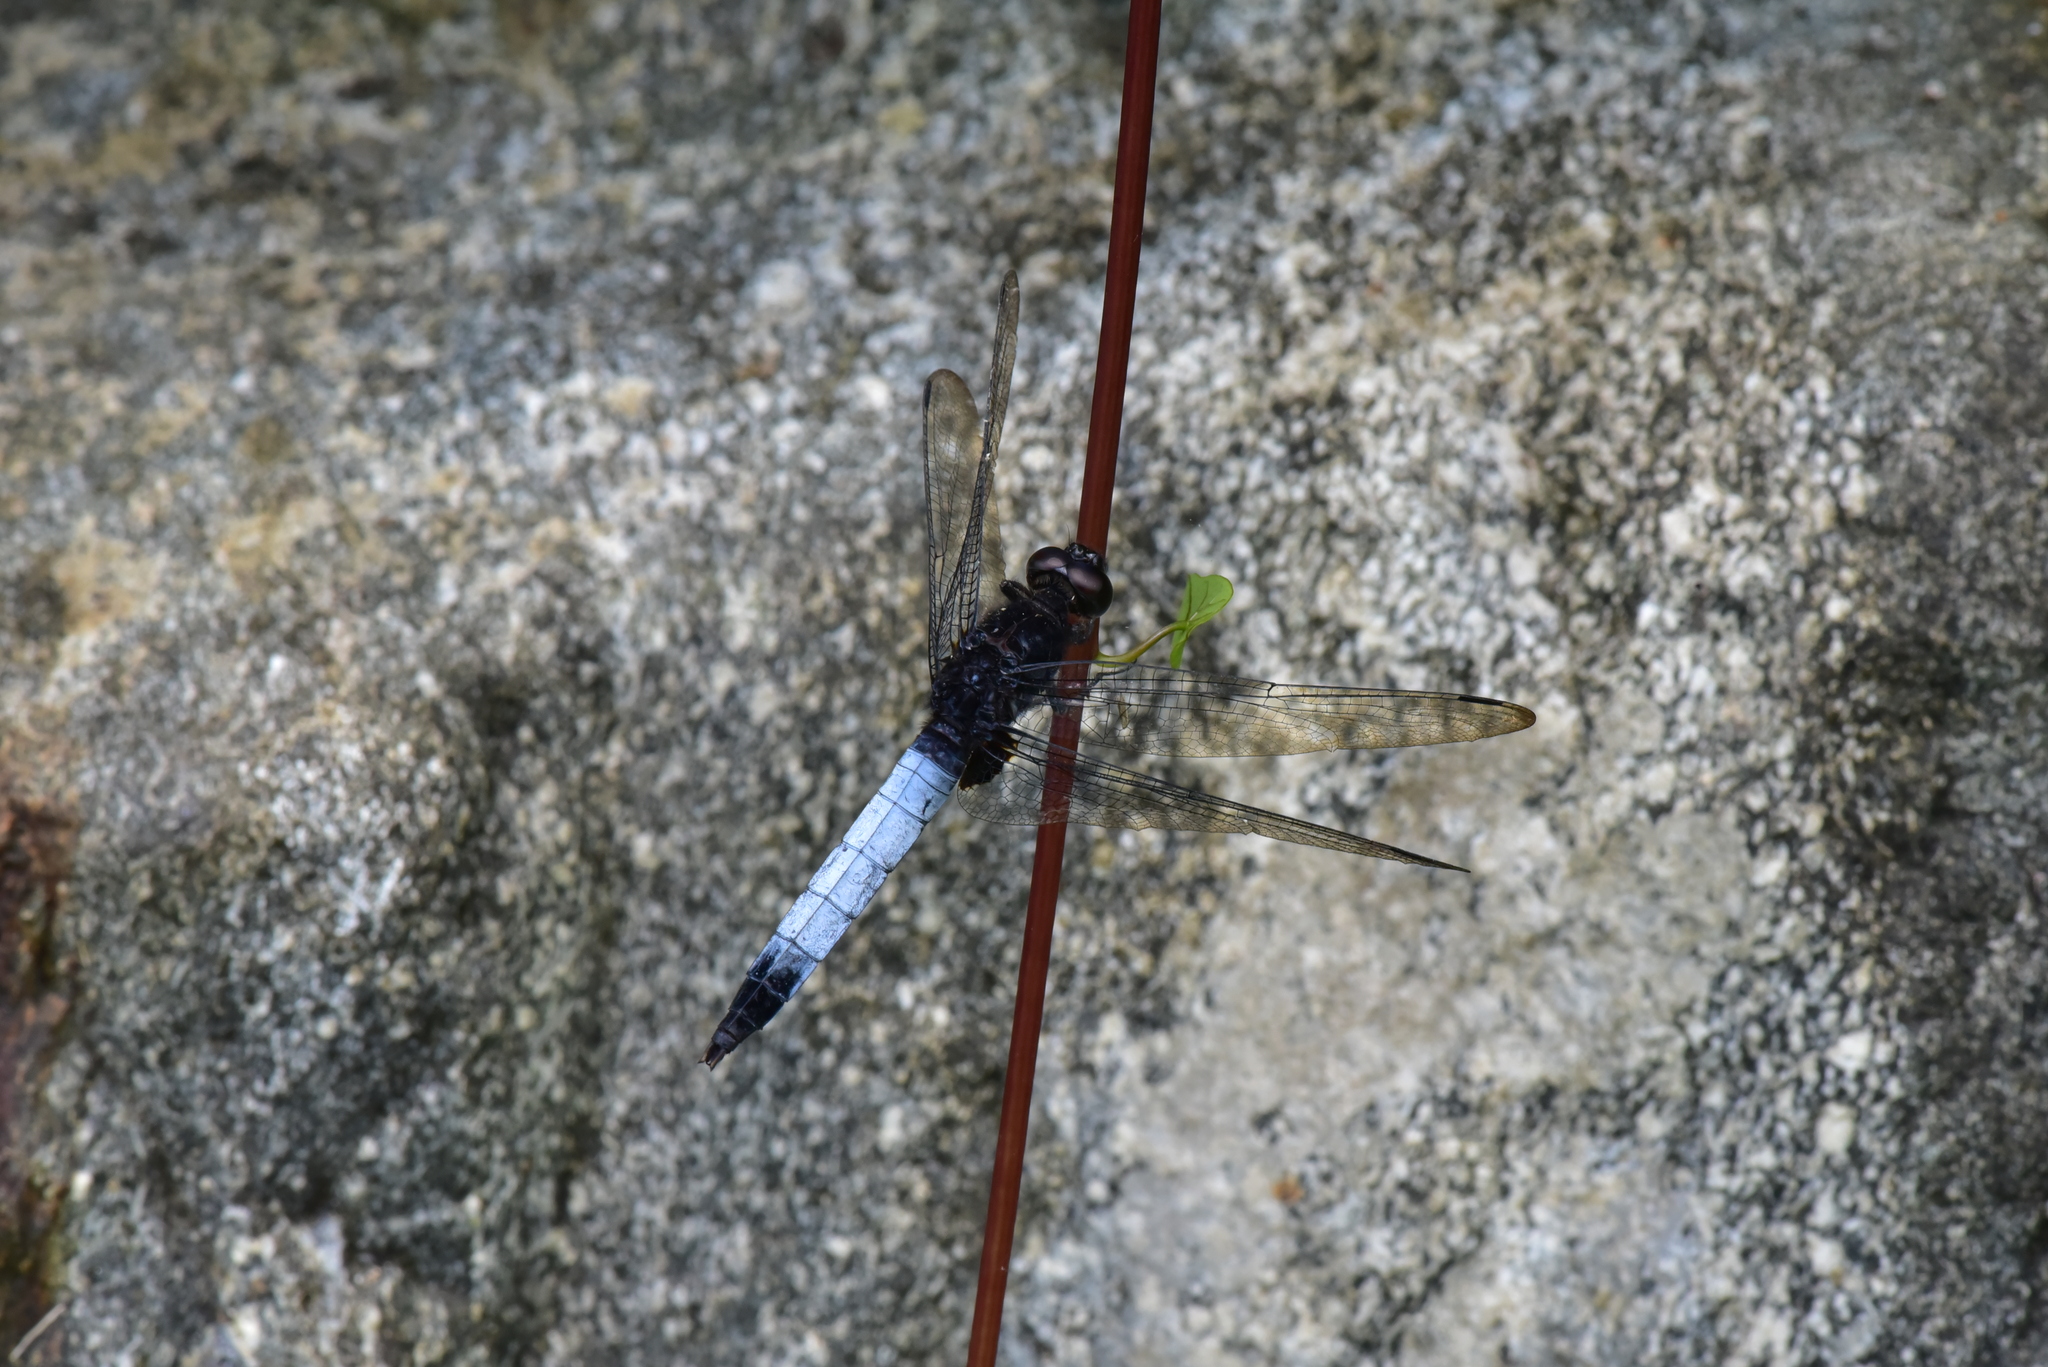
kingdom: Animalia
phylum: Arthropoda
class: Insecta
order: Odonata
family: Libellulidae
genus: Orthetrum
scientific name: Orthetrum triangulare
